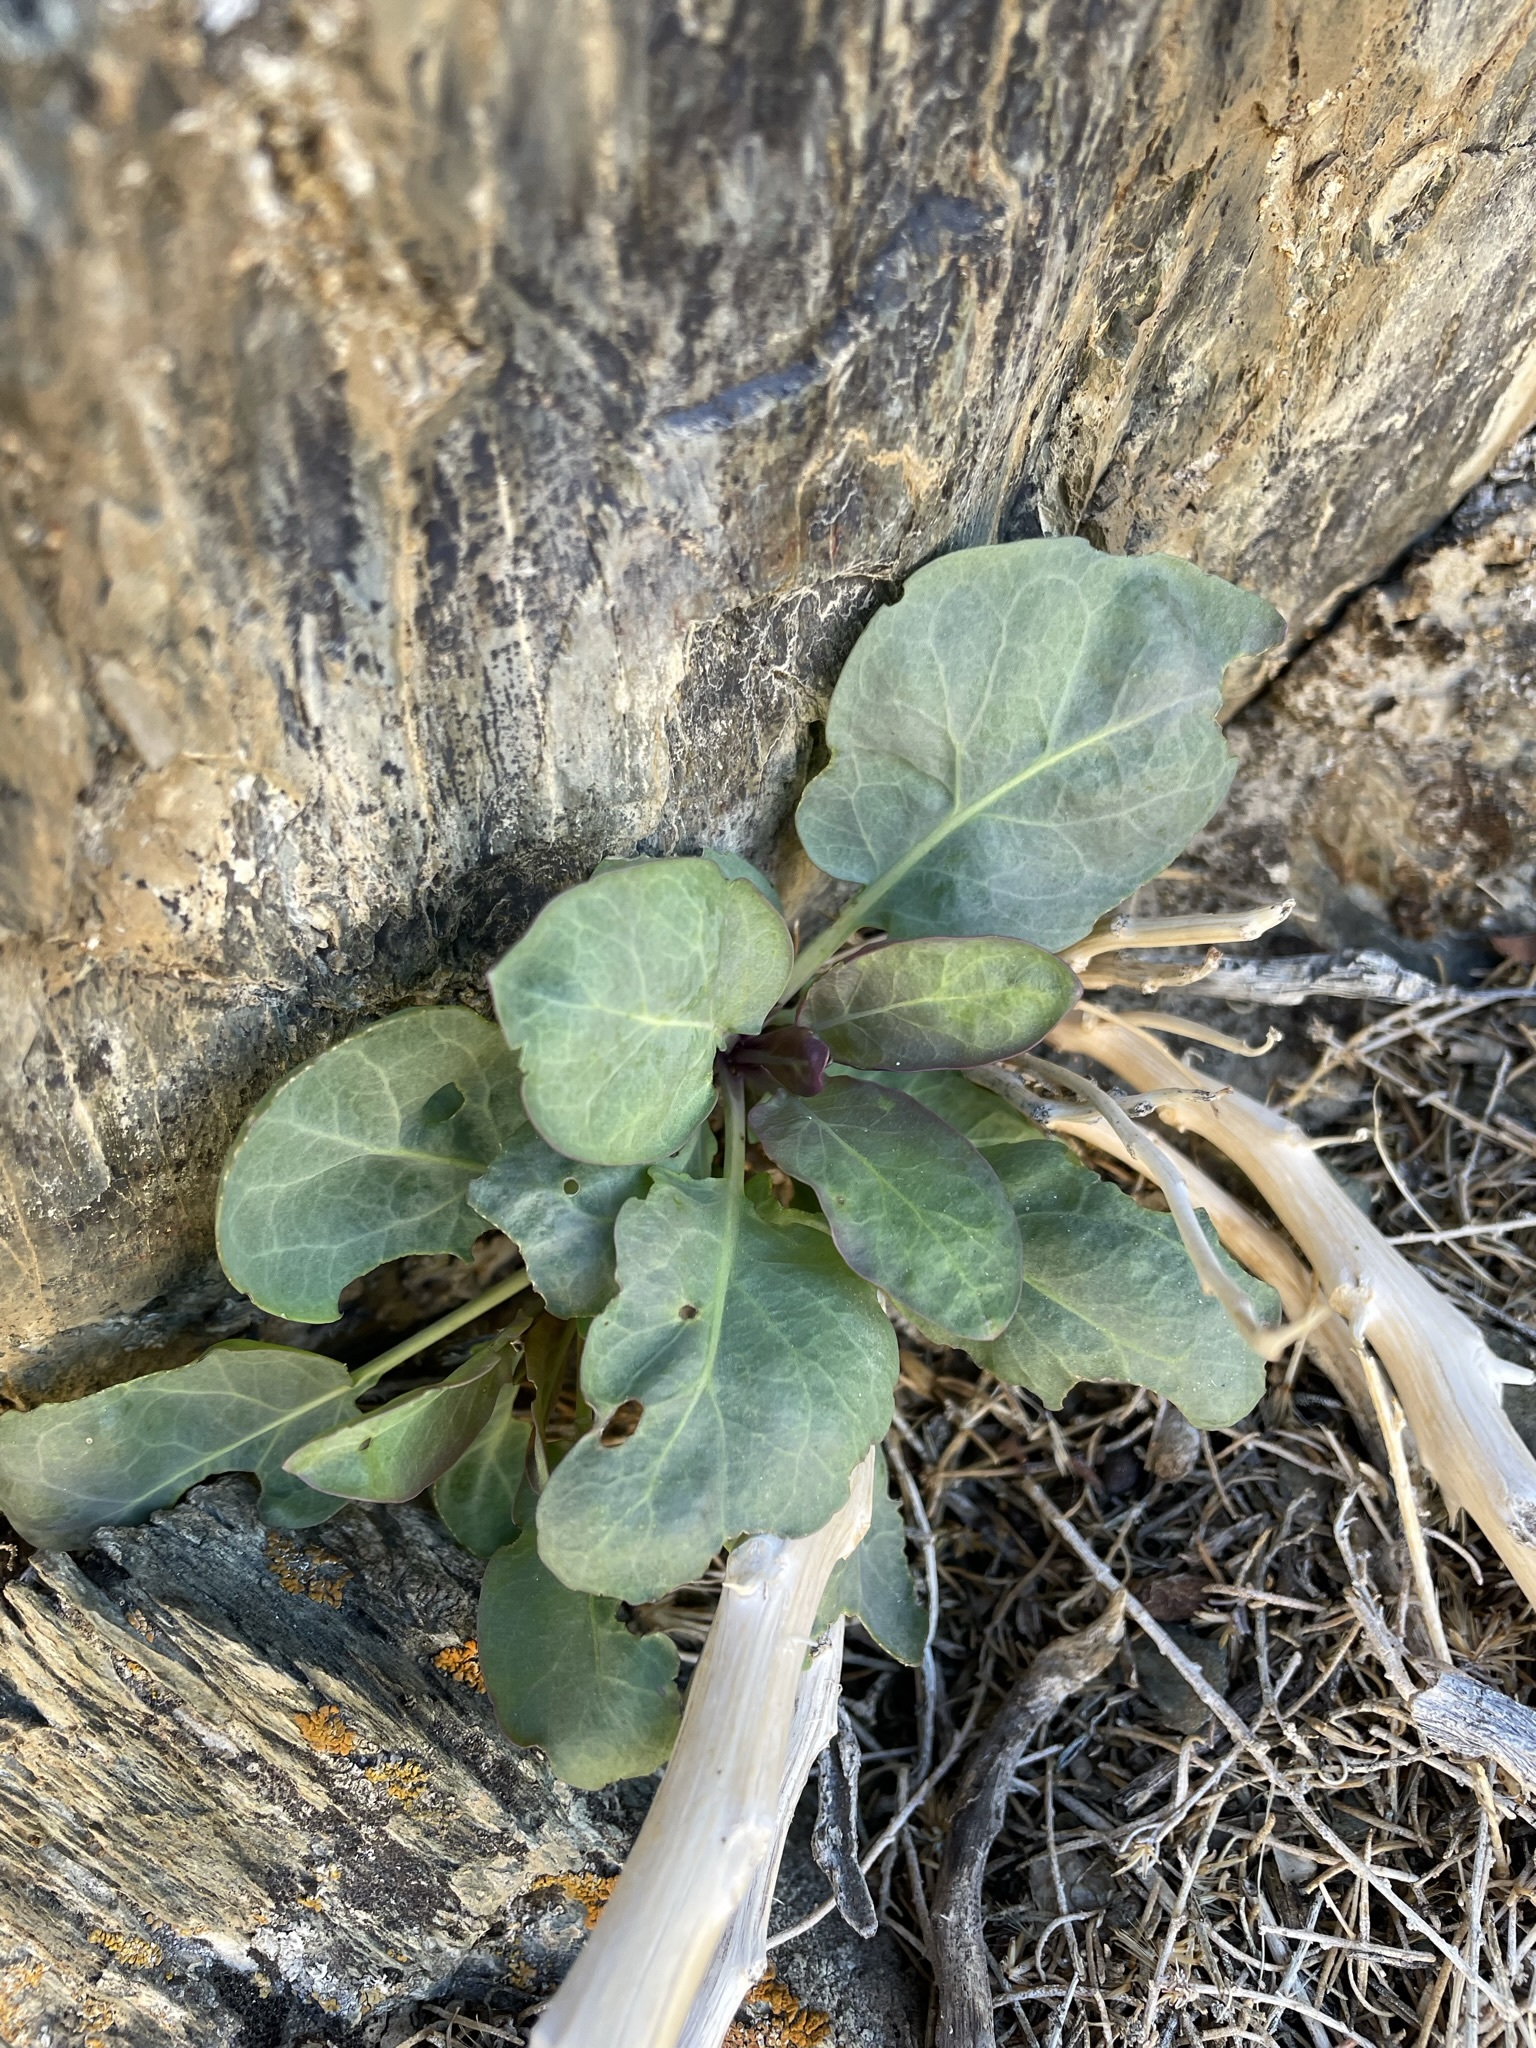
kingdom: Plantae
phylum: Tracheophyta
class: Magnoliopsida
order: Brassicales
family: Brassicaceae
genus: Streptanthus
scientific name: Streptanthus glaucus
